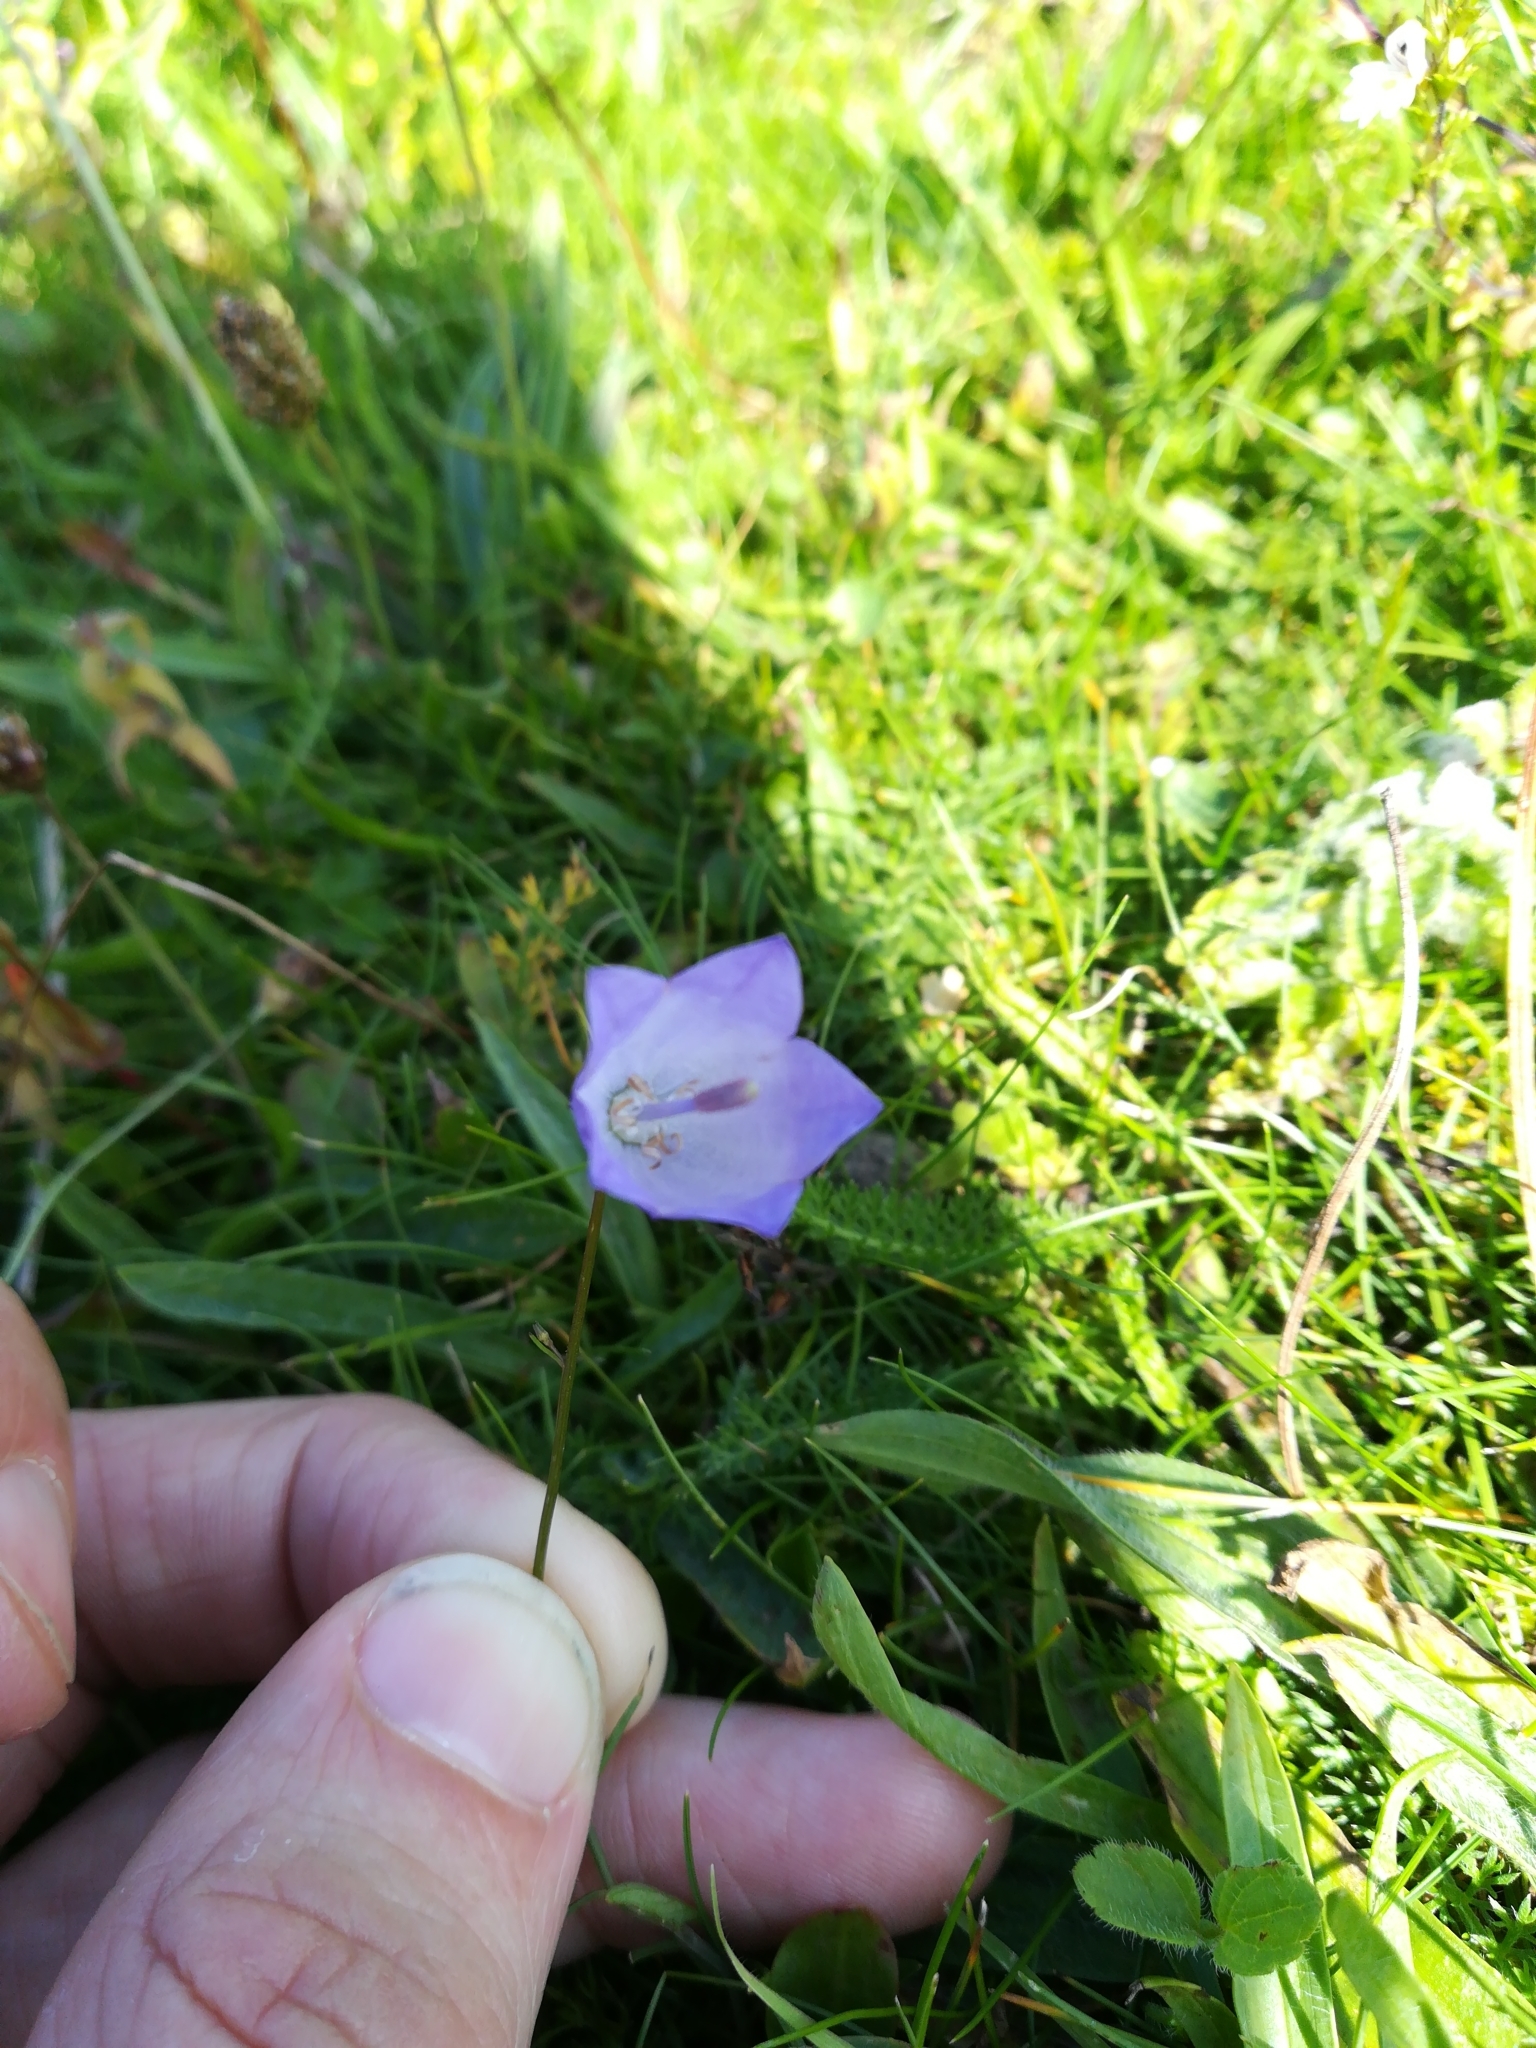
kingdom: Plantae
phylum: Tracheophyta
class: Magnoliopsida
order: Asterales
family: Campanulaceae
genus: Campanula
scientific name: Campanula rotundifolia
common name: Harebell
